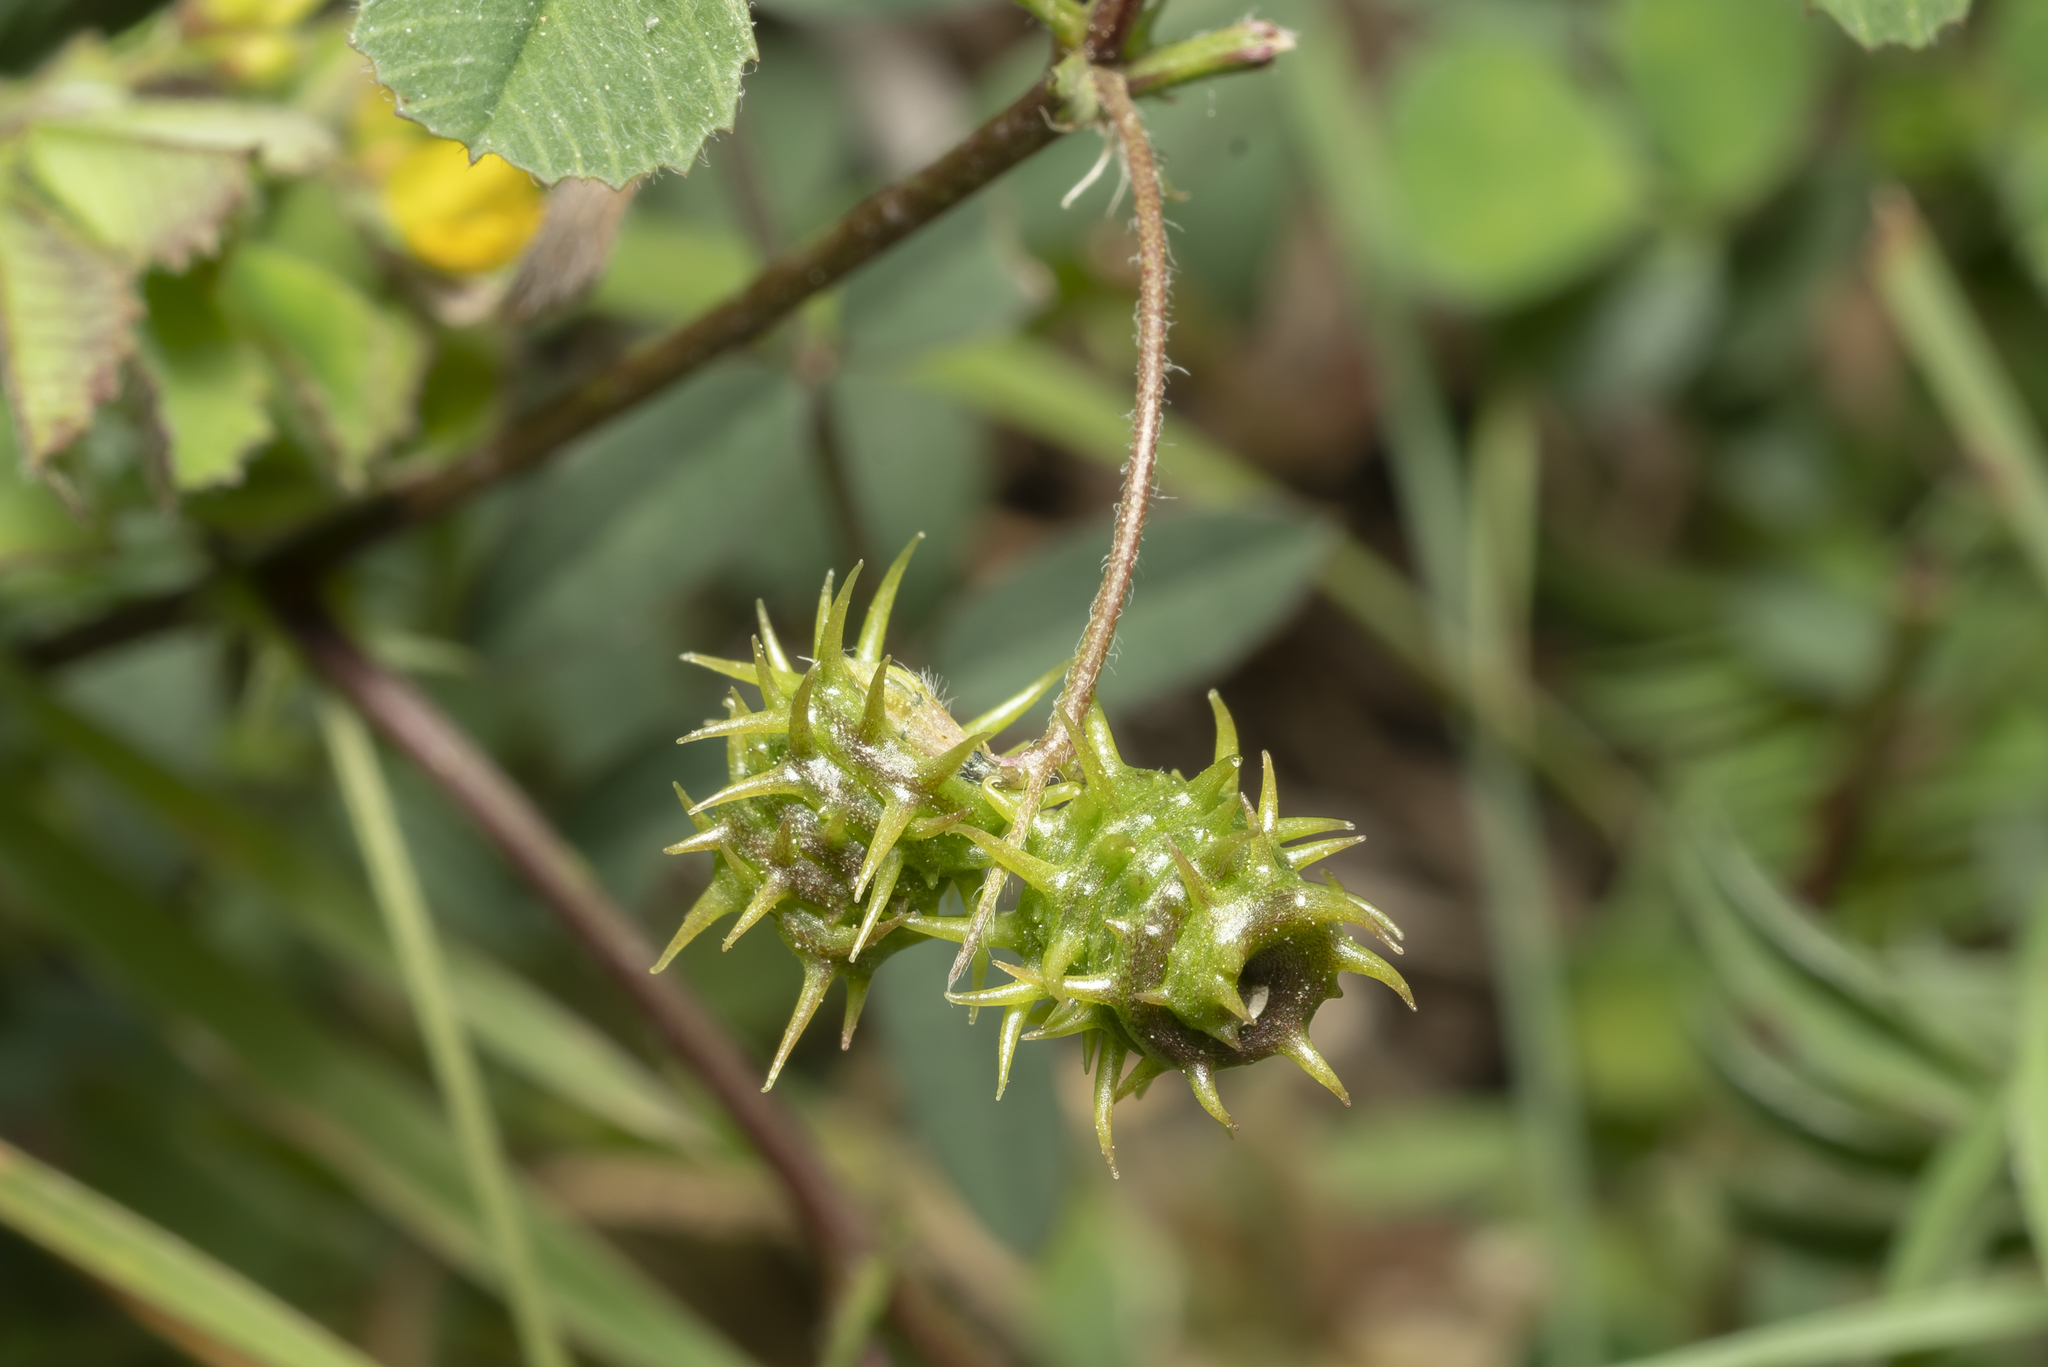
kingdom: Plantae
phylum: Tracheophyta
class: Magnoliopsida
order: Fabales
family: Fabaceae
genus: Medicago
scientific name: Medicago littoralis
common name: Shore medick
